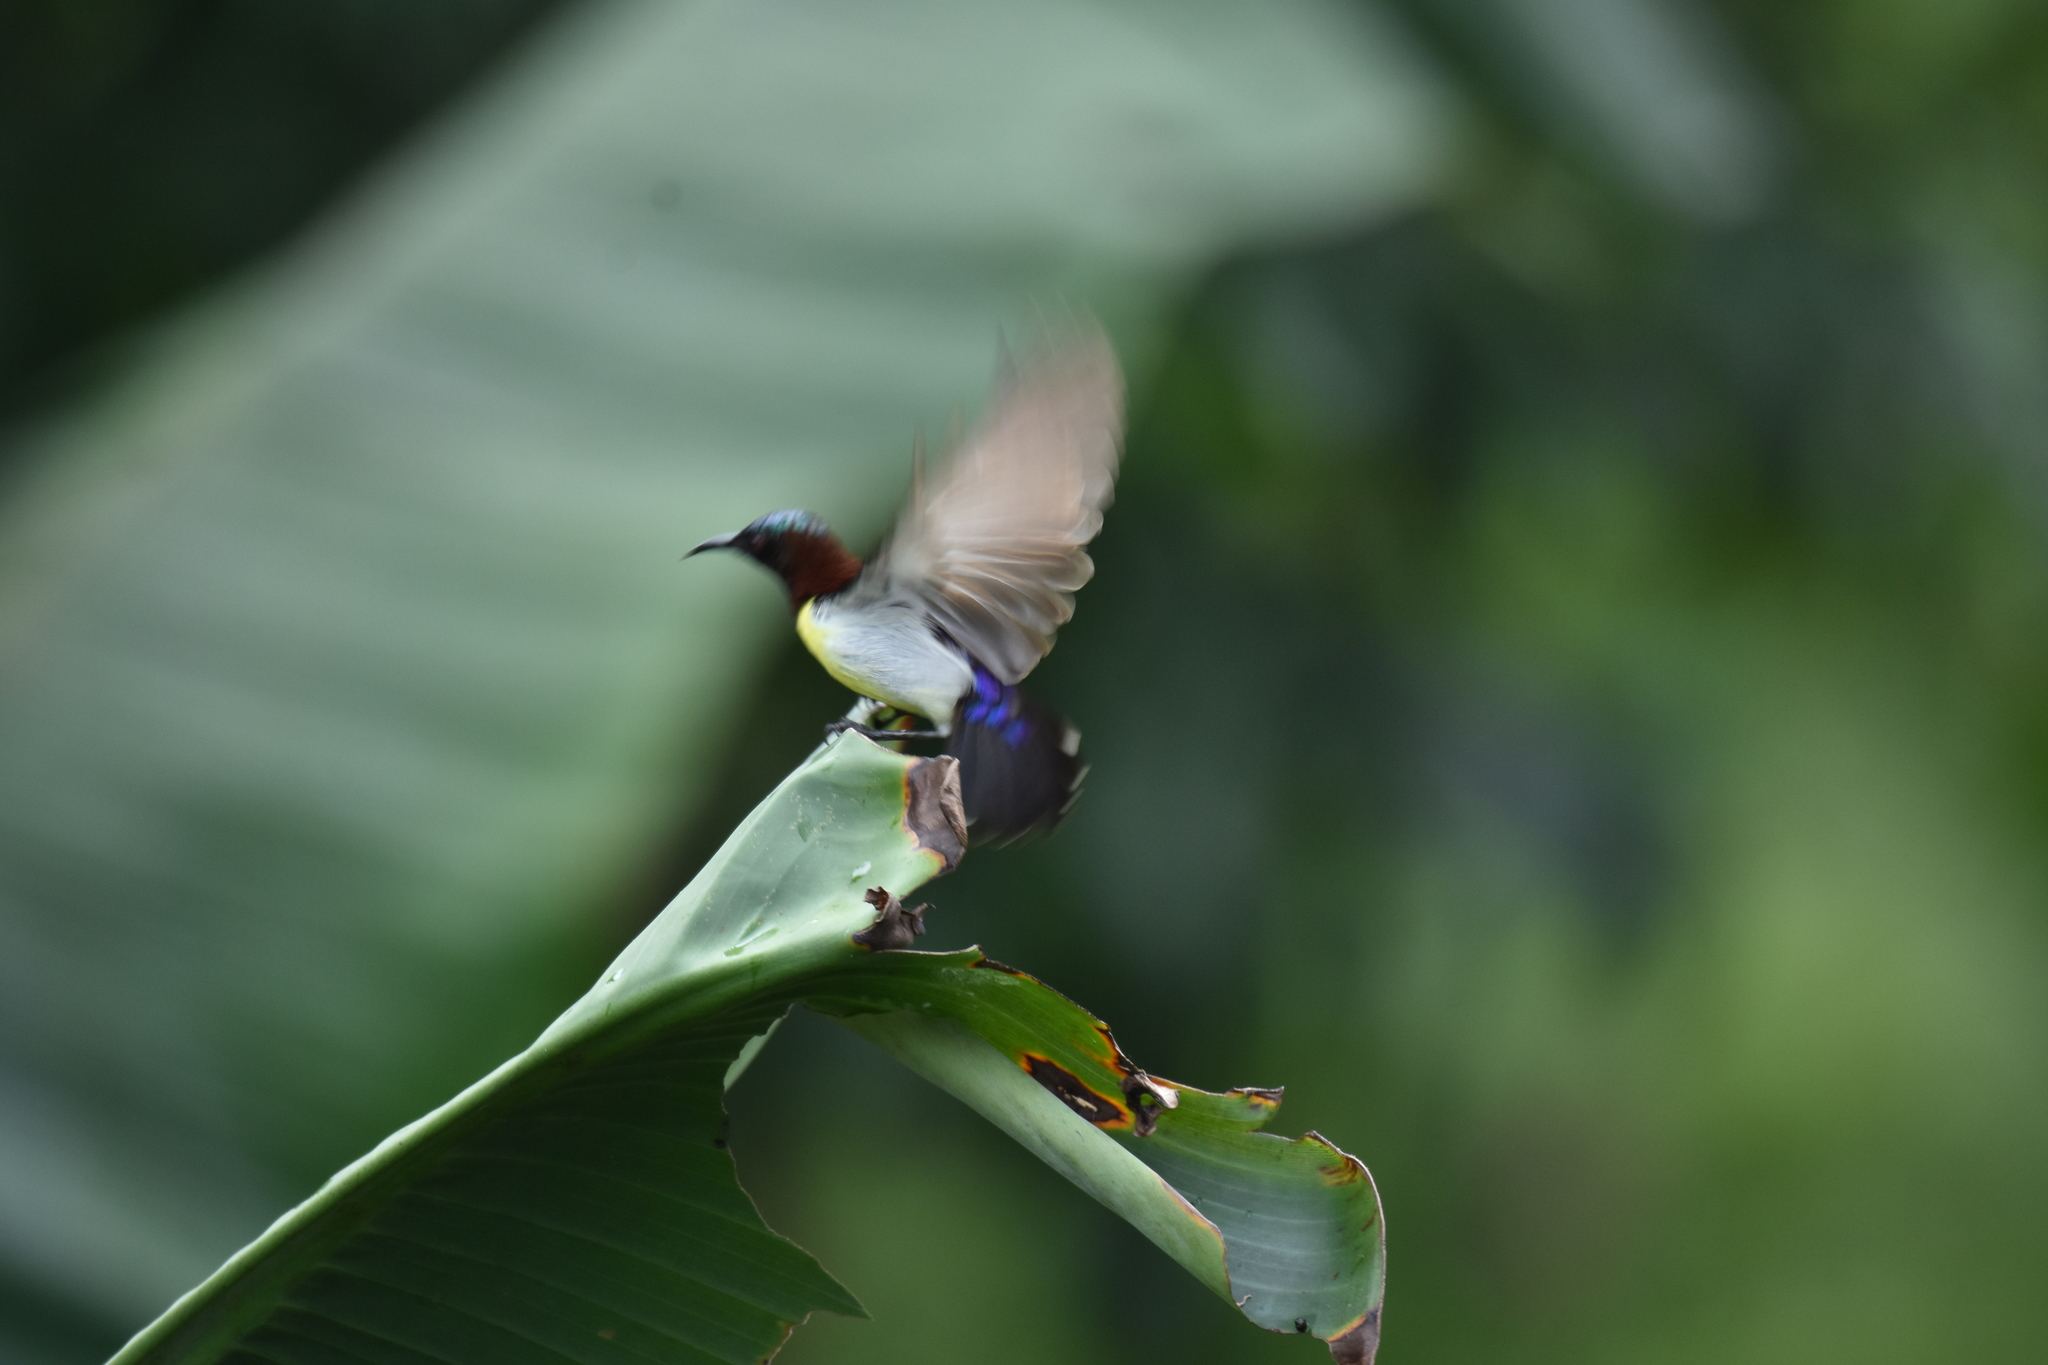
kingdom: Animalia
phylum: Chordata
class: Aves
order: Passeriformes
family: Nectariniidae
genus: Leptocoma
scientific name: Leptocoma zeylonica
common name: Purple-rumped sunbird
